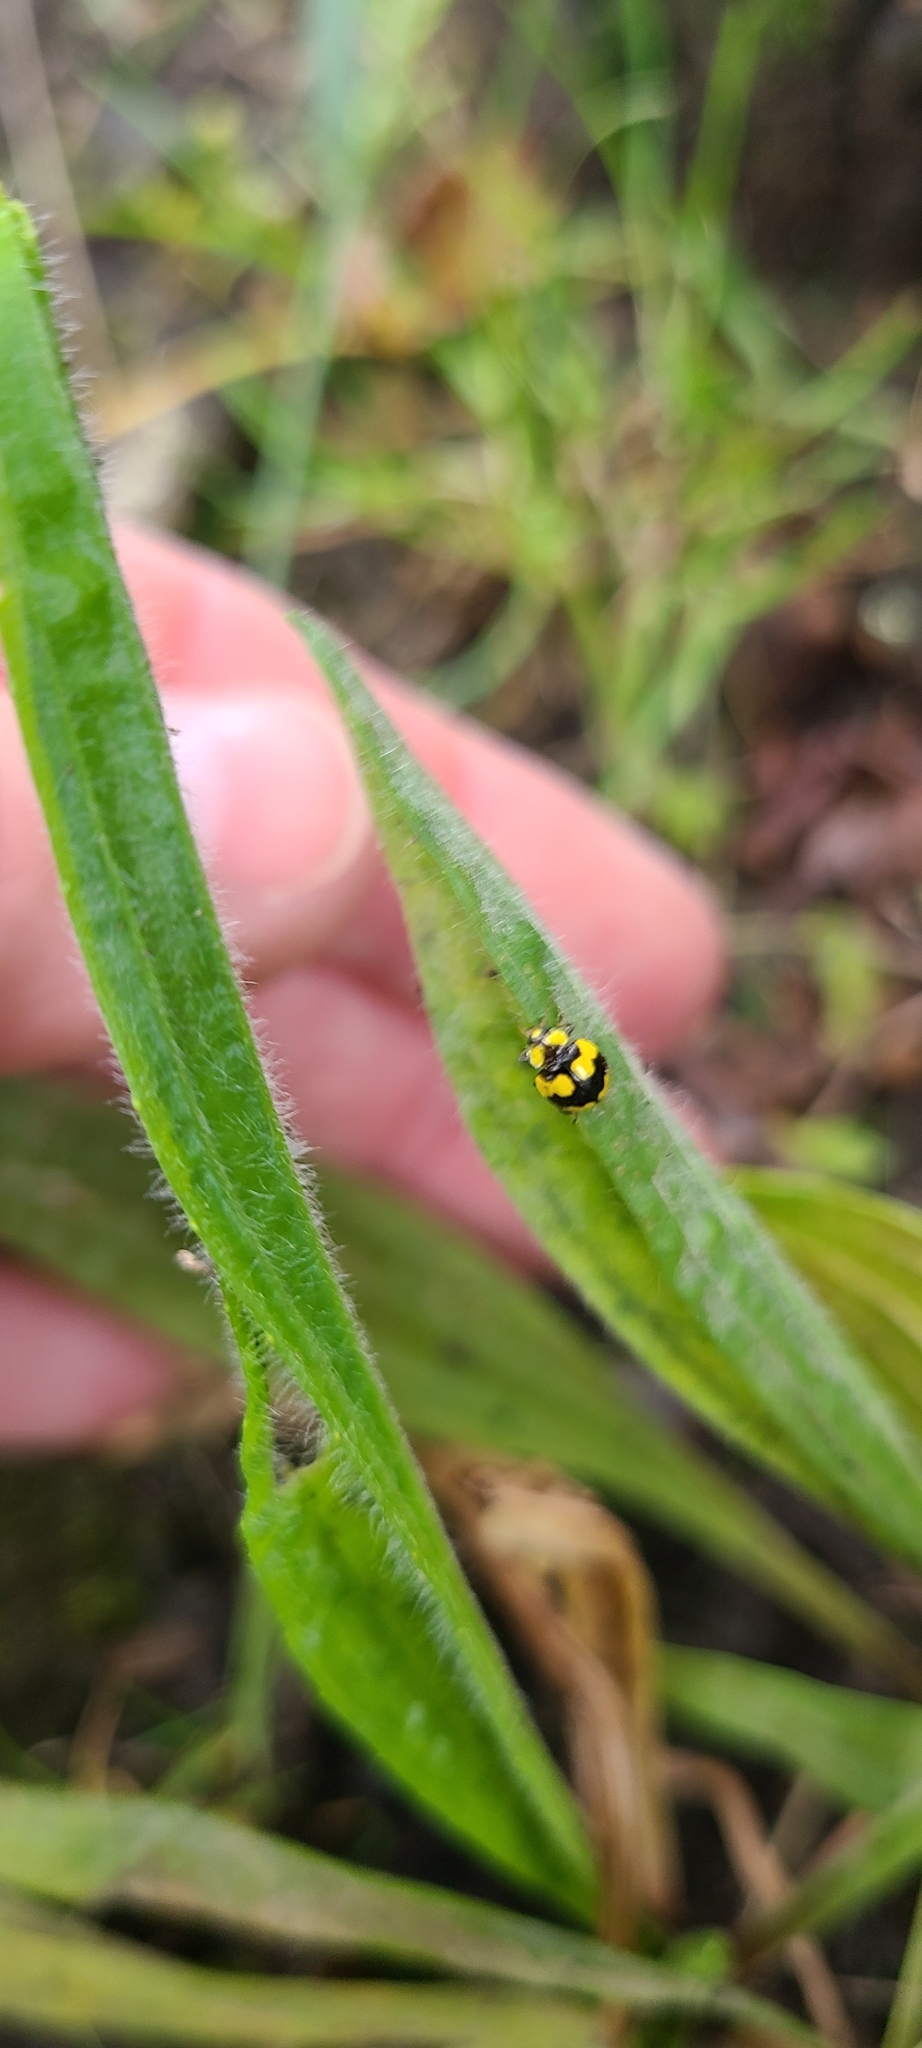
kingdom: Animalia
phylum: Arthropoda
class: Insecta
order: Coleoptera
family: Coccinellidae
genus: Illeis
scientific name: Illeis galbula
